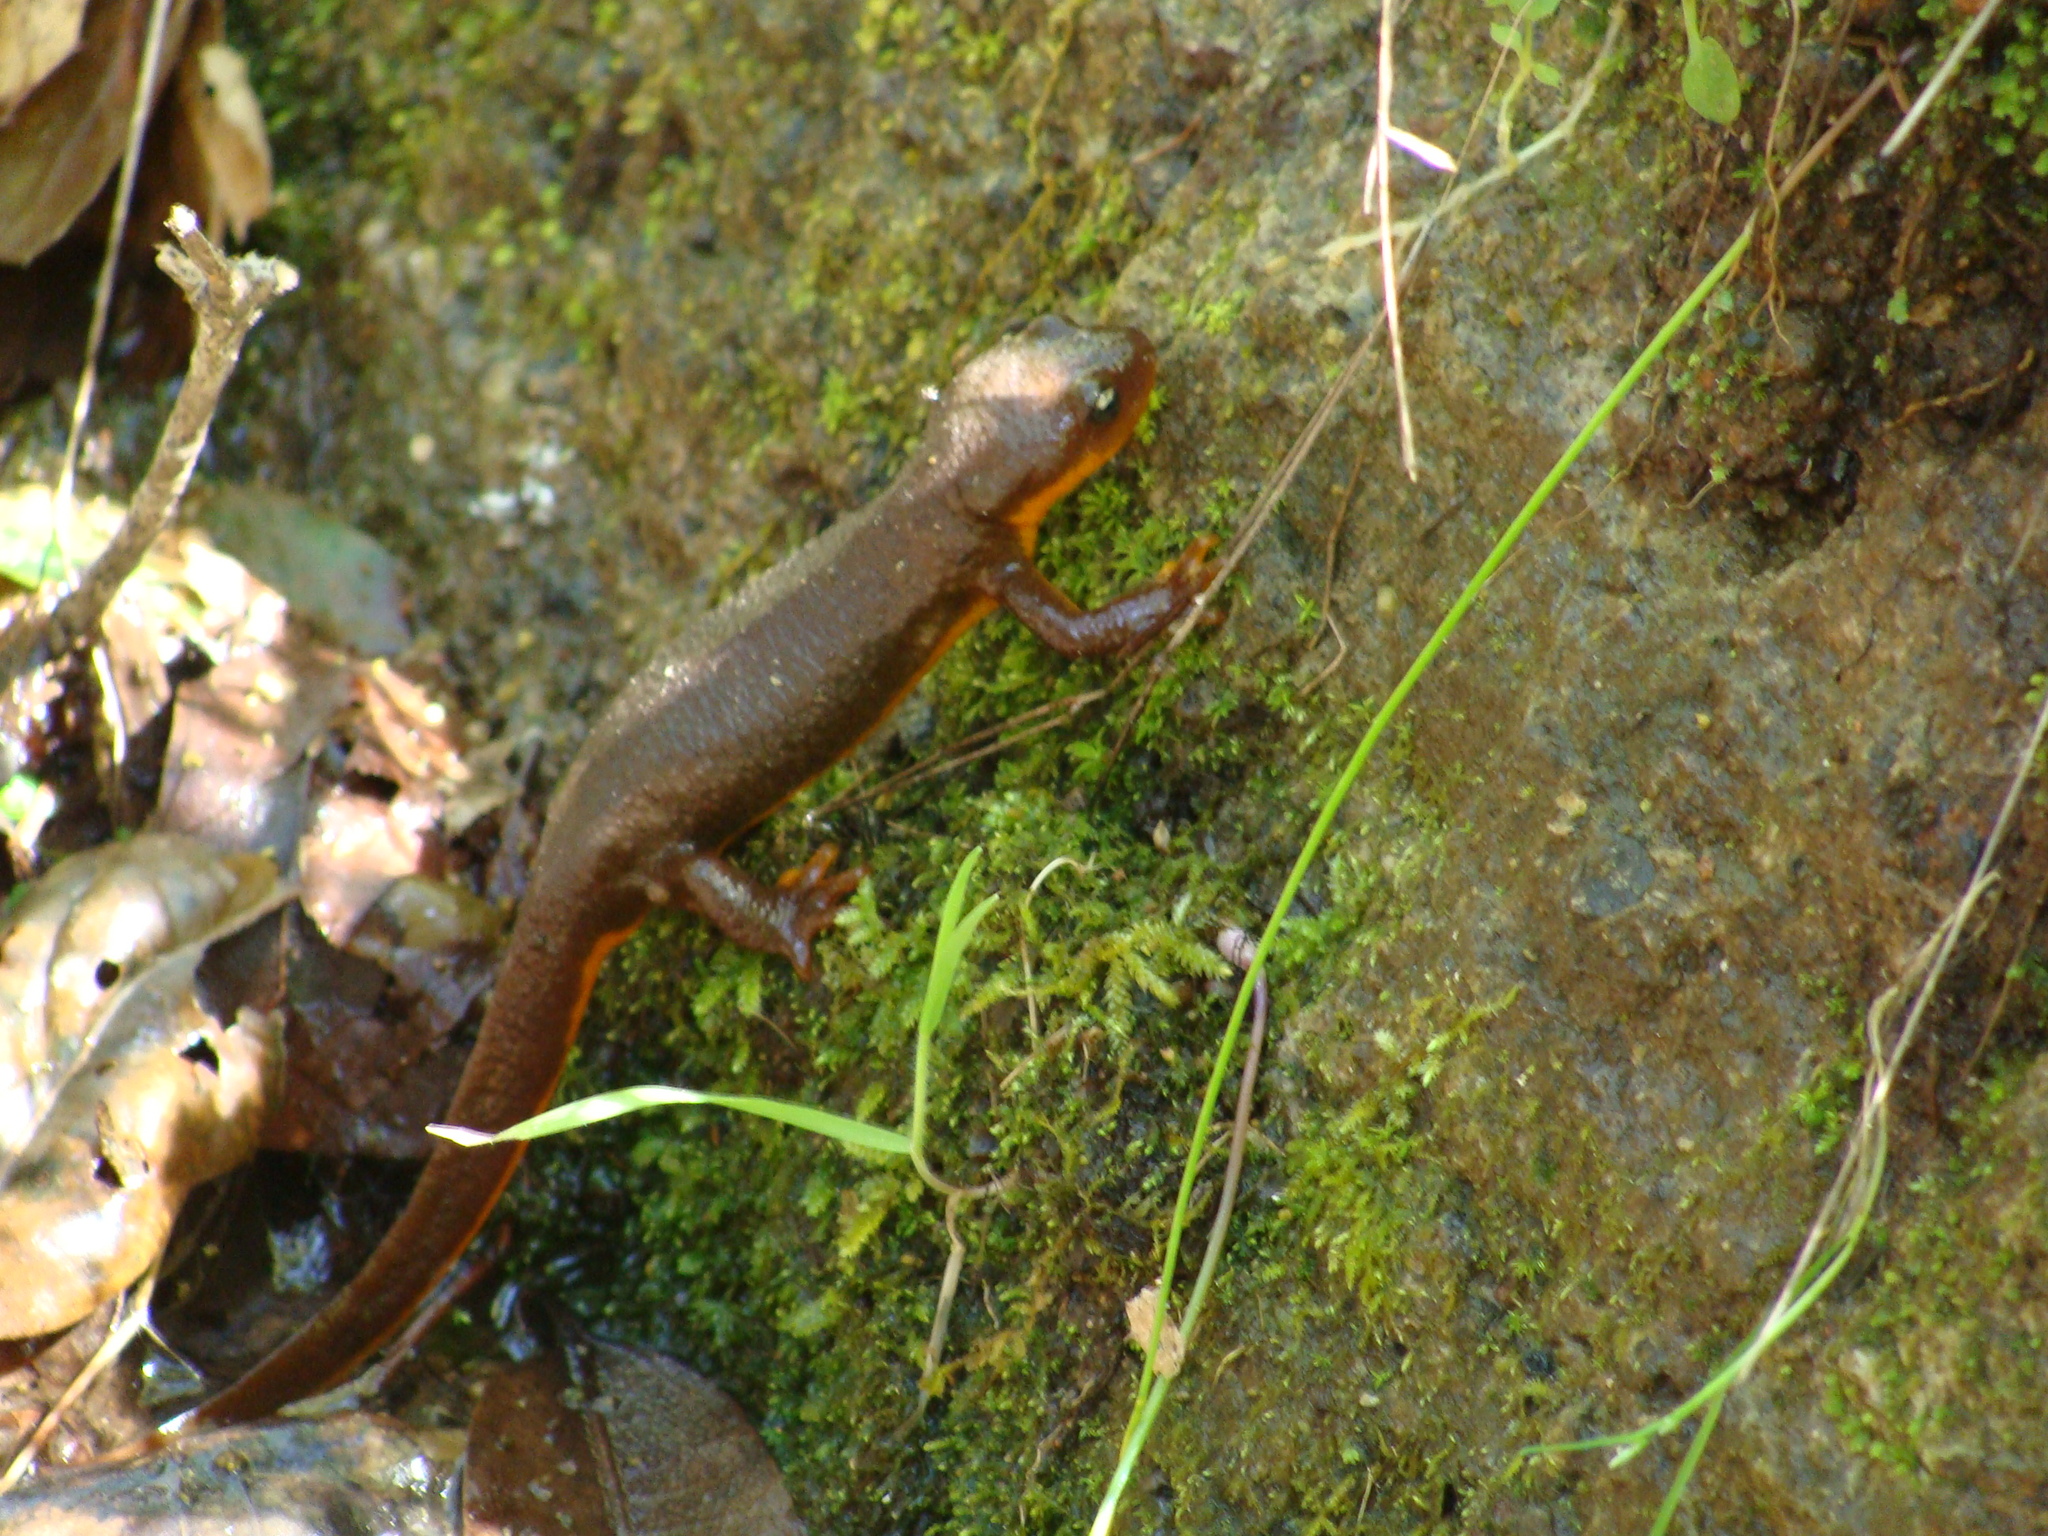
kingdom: Animalia
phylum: Chordata
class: Amphibia
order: Caudata
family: Salamandridae
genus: Taricha
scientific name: Taricha torosa
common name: California newt
